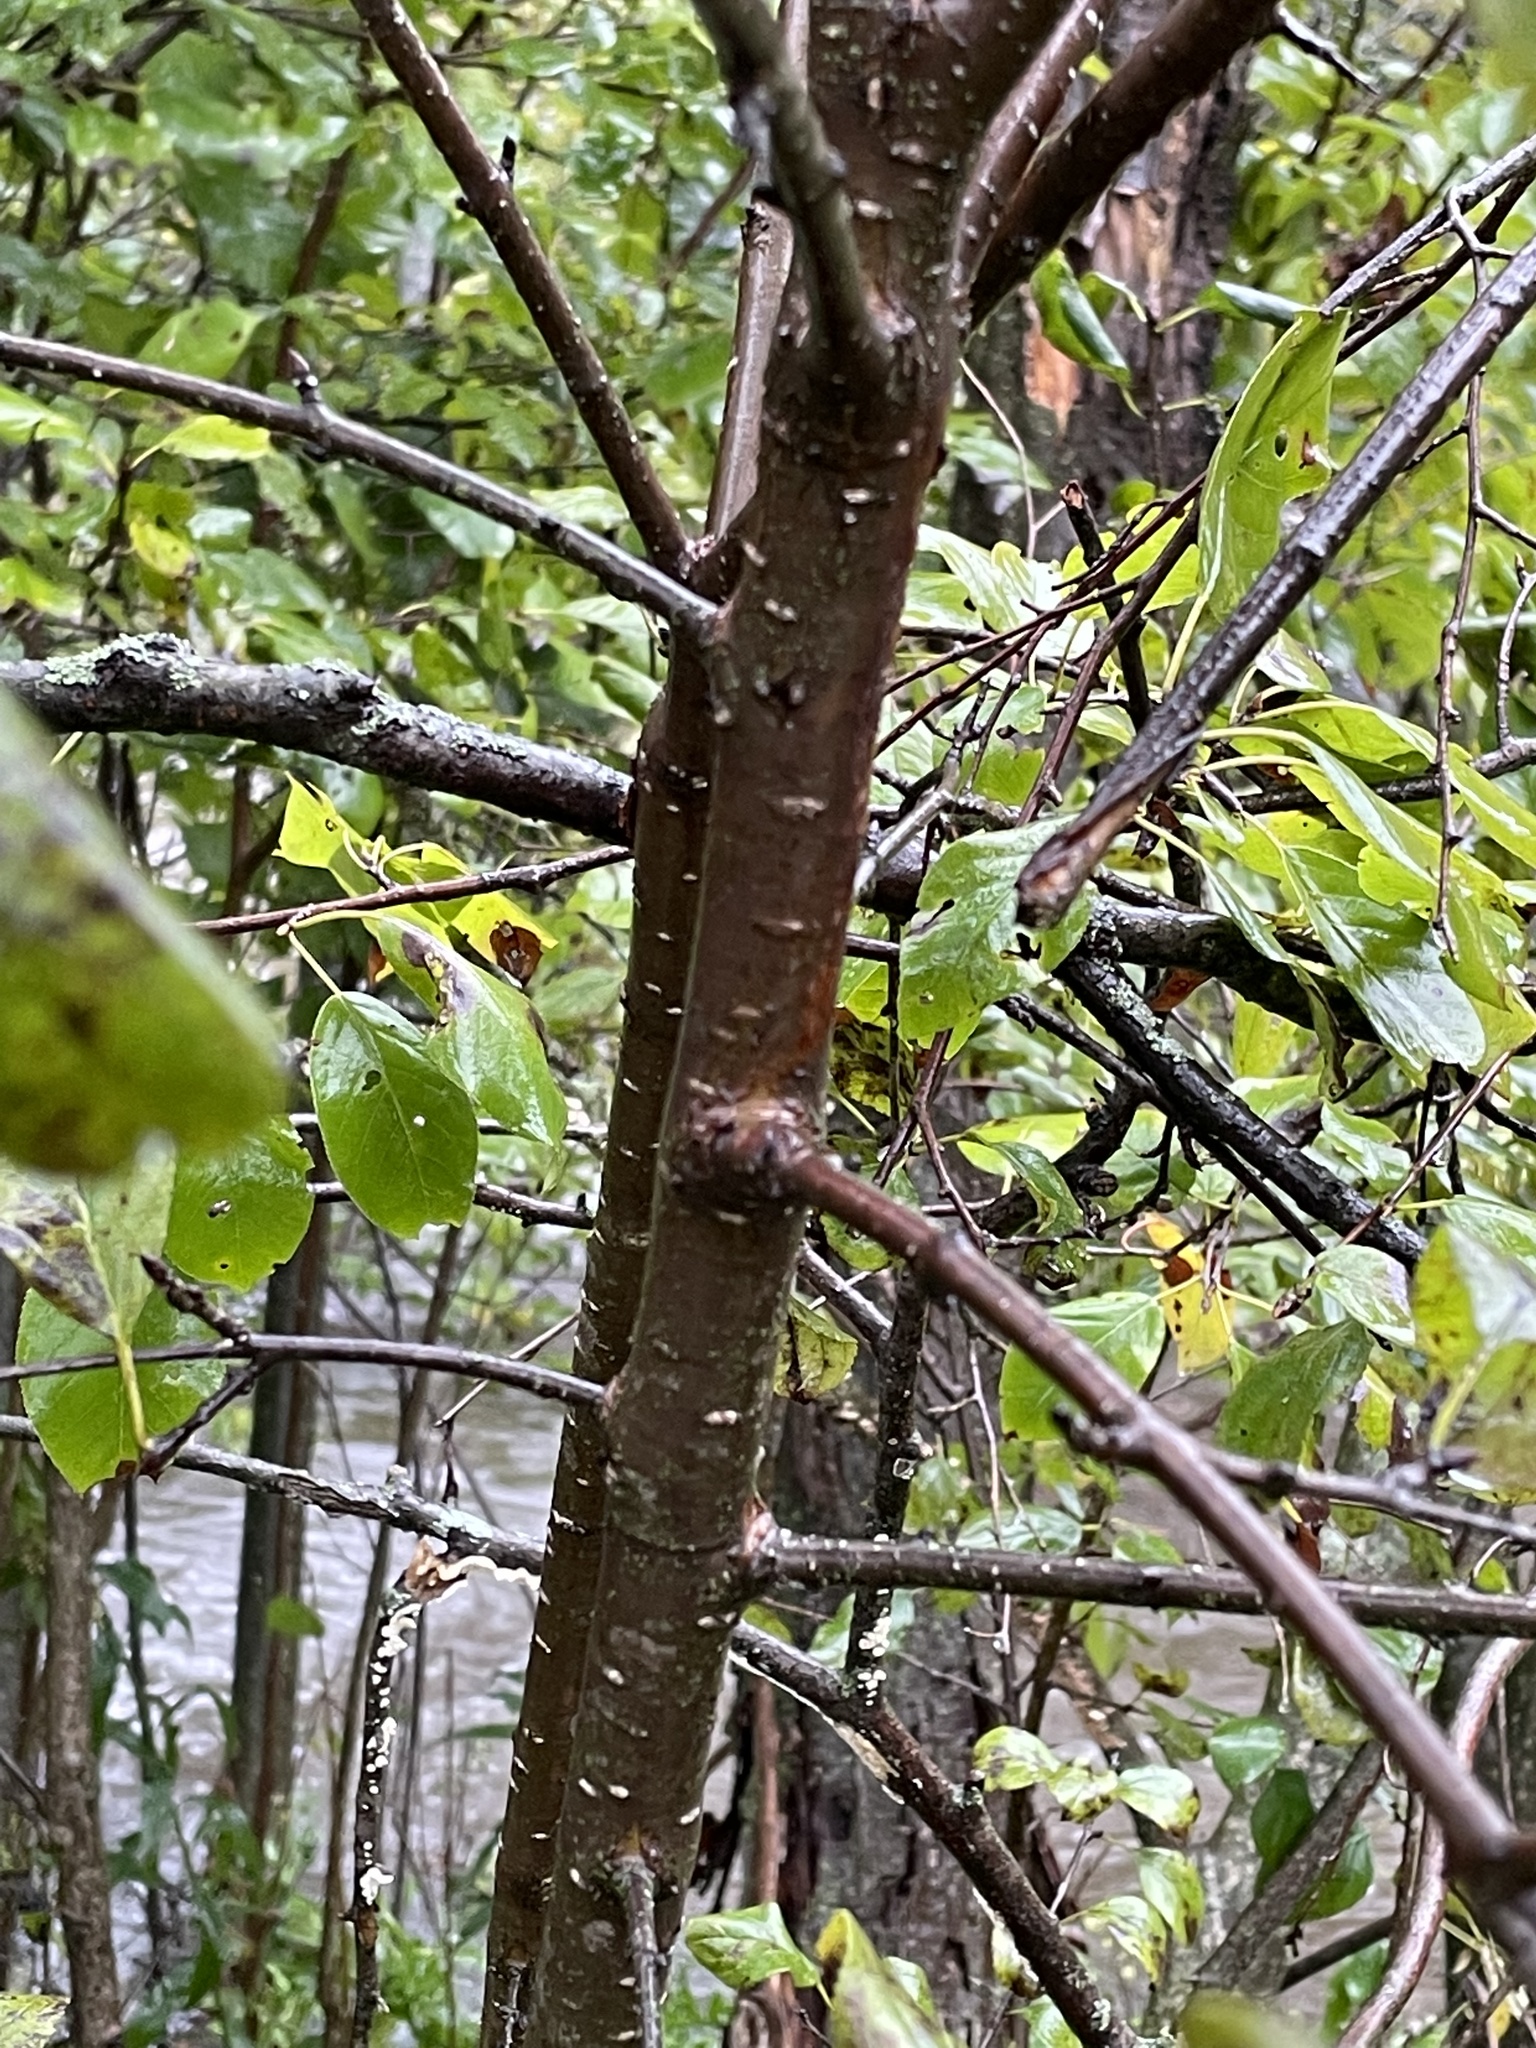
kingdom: Plantae
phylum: Tracheophyta
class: Magnoliopsida
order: Rosales
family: Rhamnaceae
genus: Rhamnus
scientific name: Rhamnus cathartica
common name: Common buckthorn
